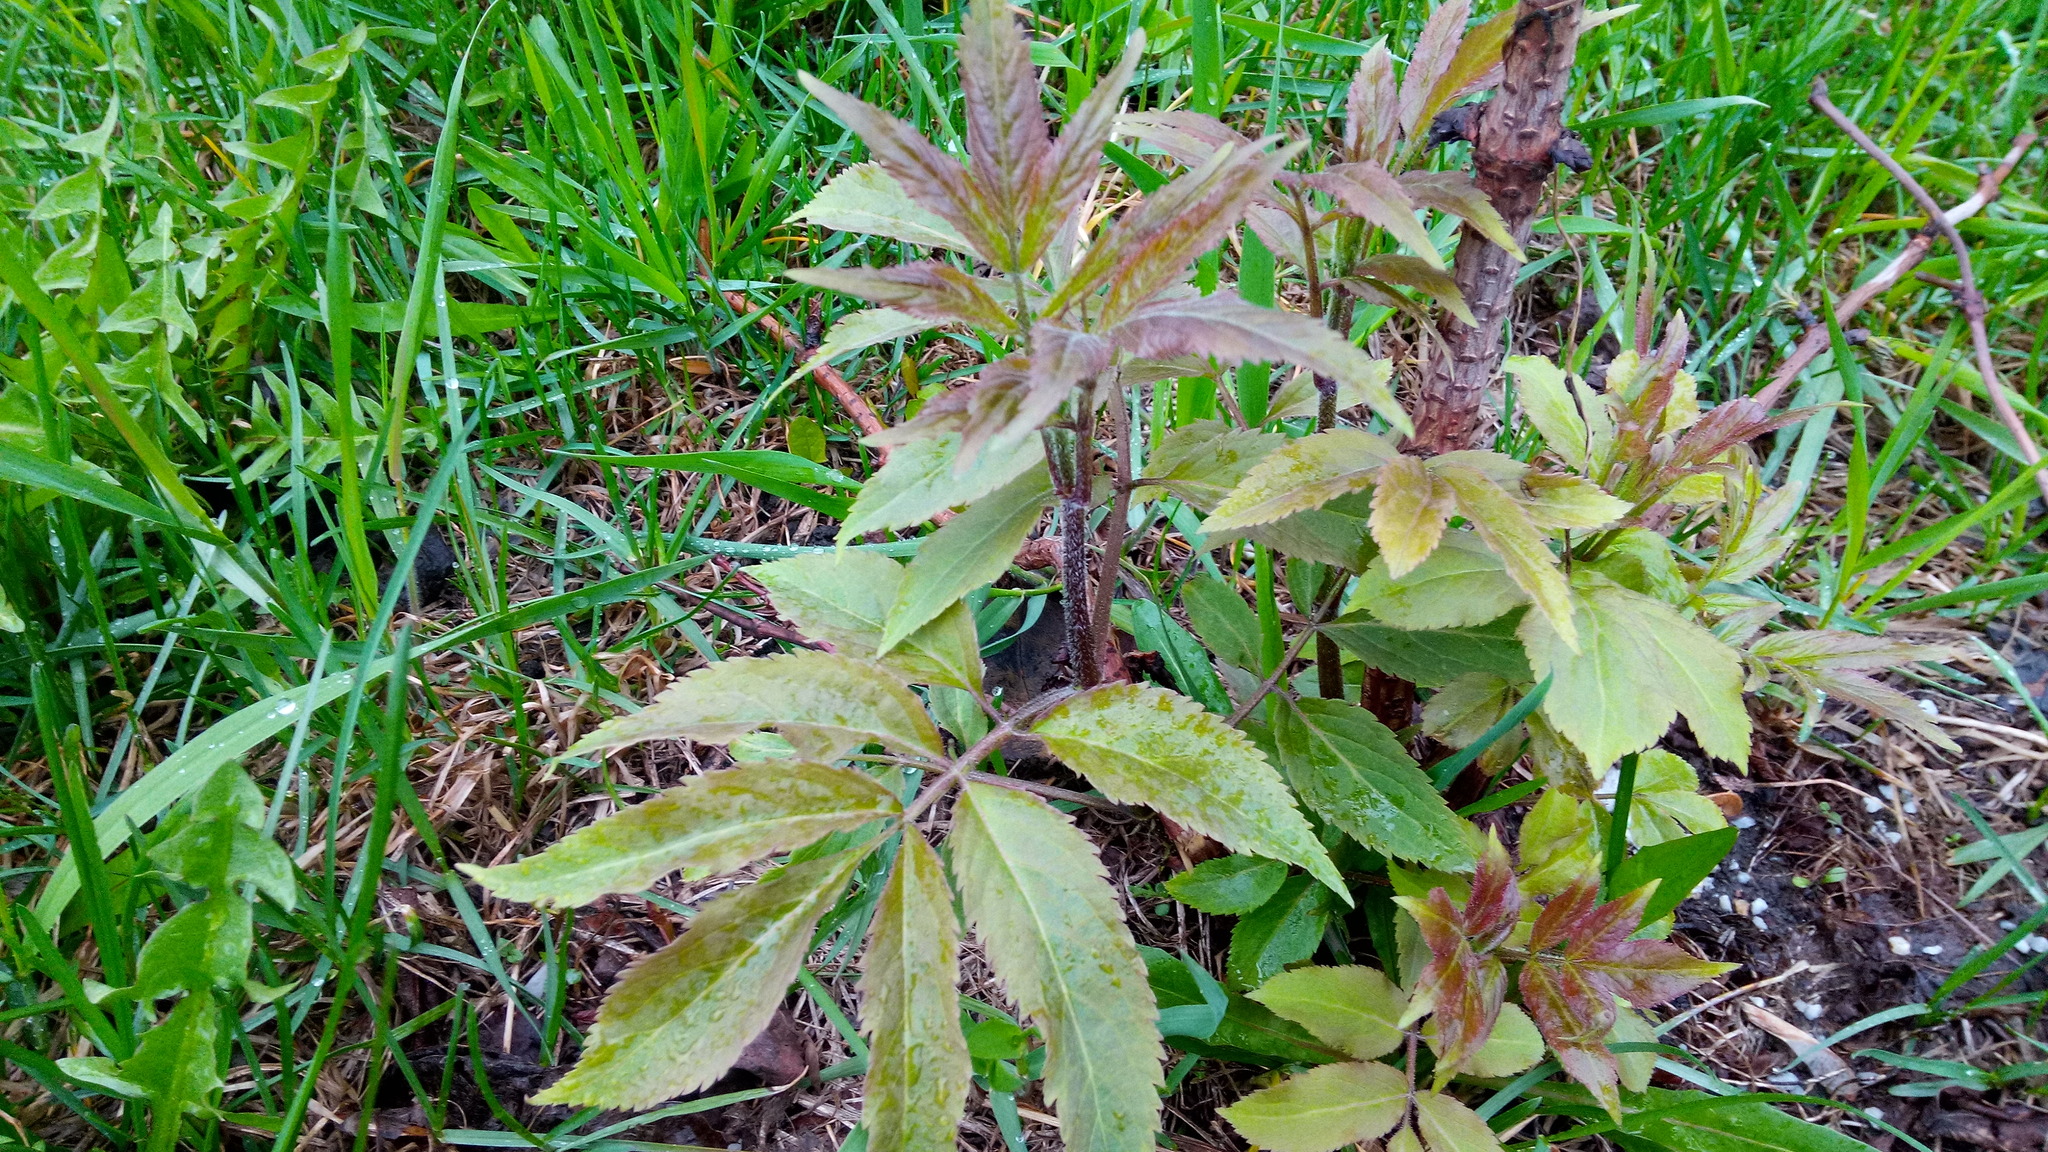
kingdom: Plantae
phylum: Tracheophyta
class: Magnoliopsida
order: Dipsacales
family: Viburnaceae
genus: Sambucus
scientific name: Sambucus racemosa
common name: Red-berried elder
